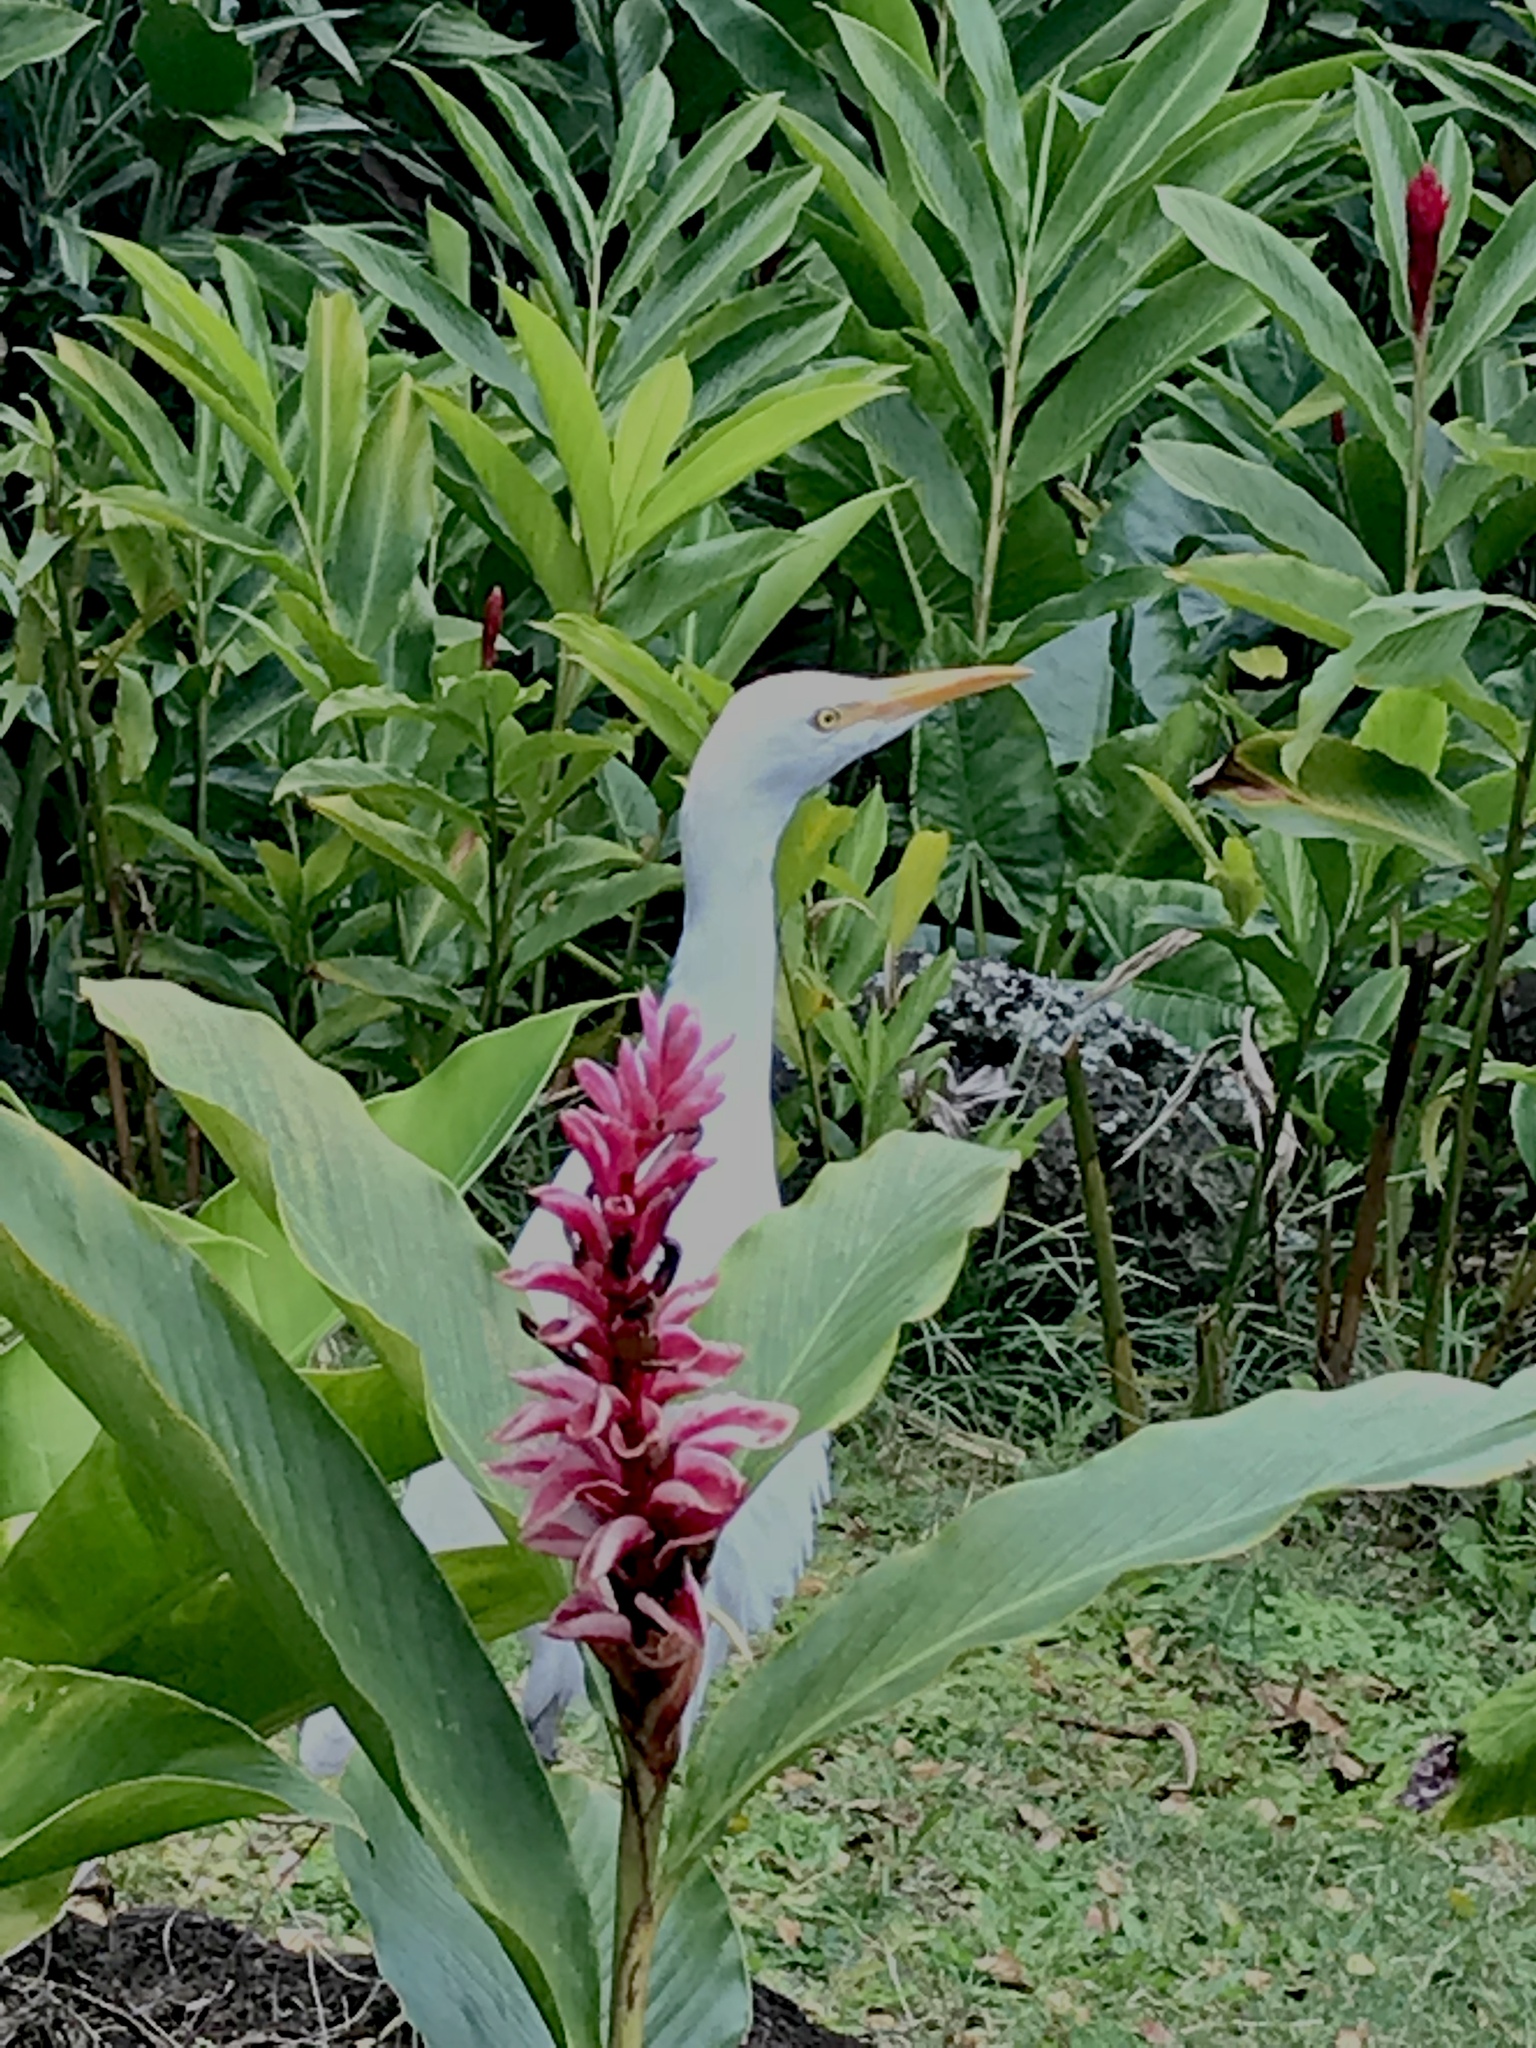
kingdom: Plantae
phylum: Tracheophyta
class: Liliopsida
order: Zingiberales
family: Zingiberaceae
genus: Alpinia
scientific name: Alpinia purpurata
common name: Red ginger
